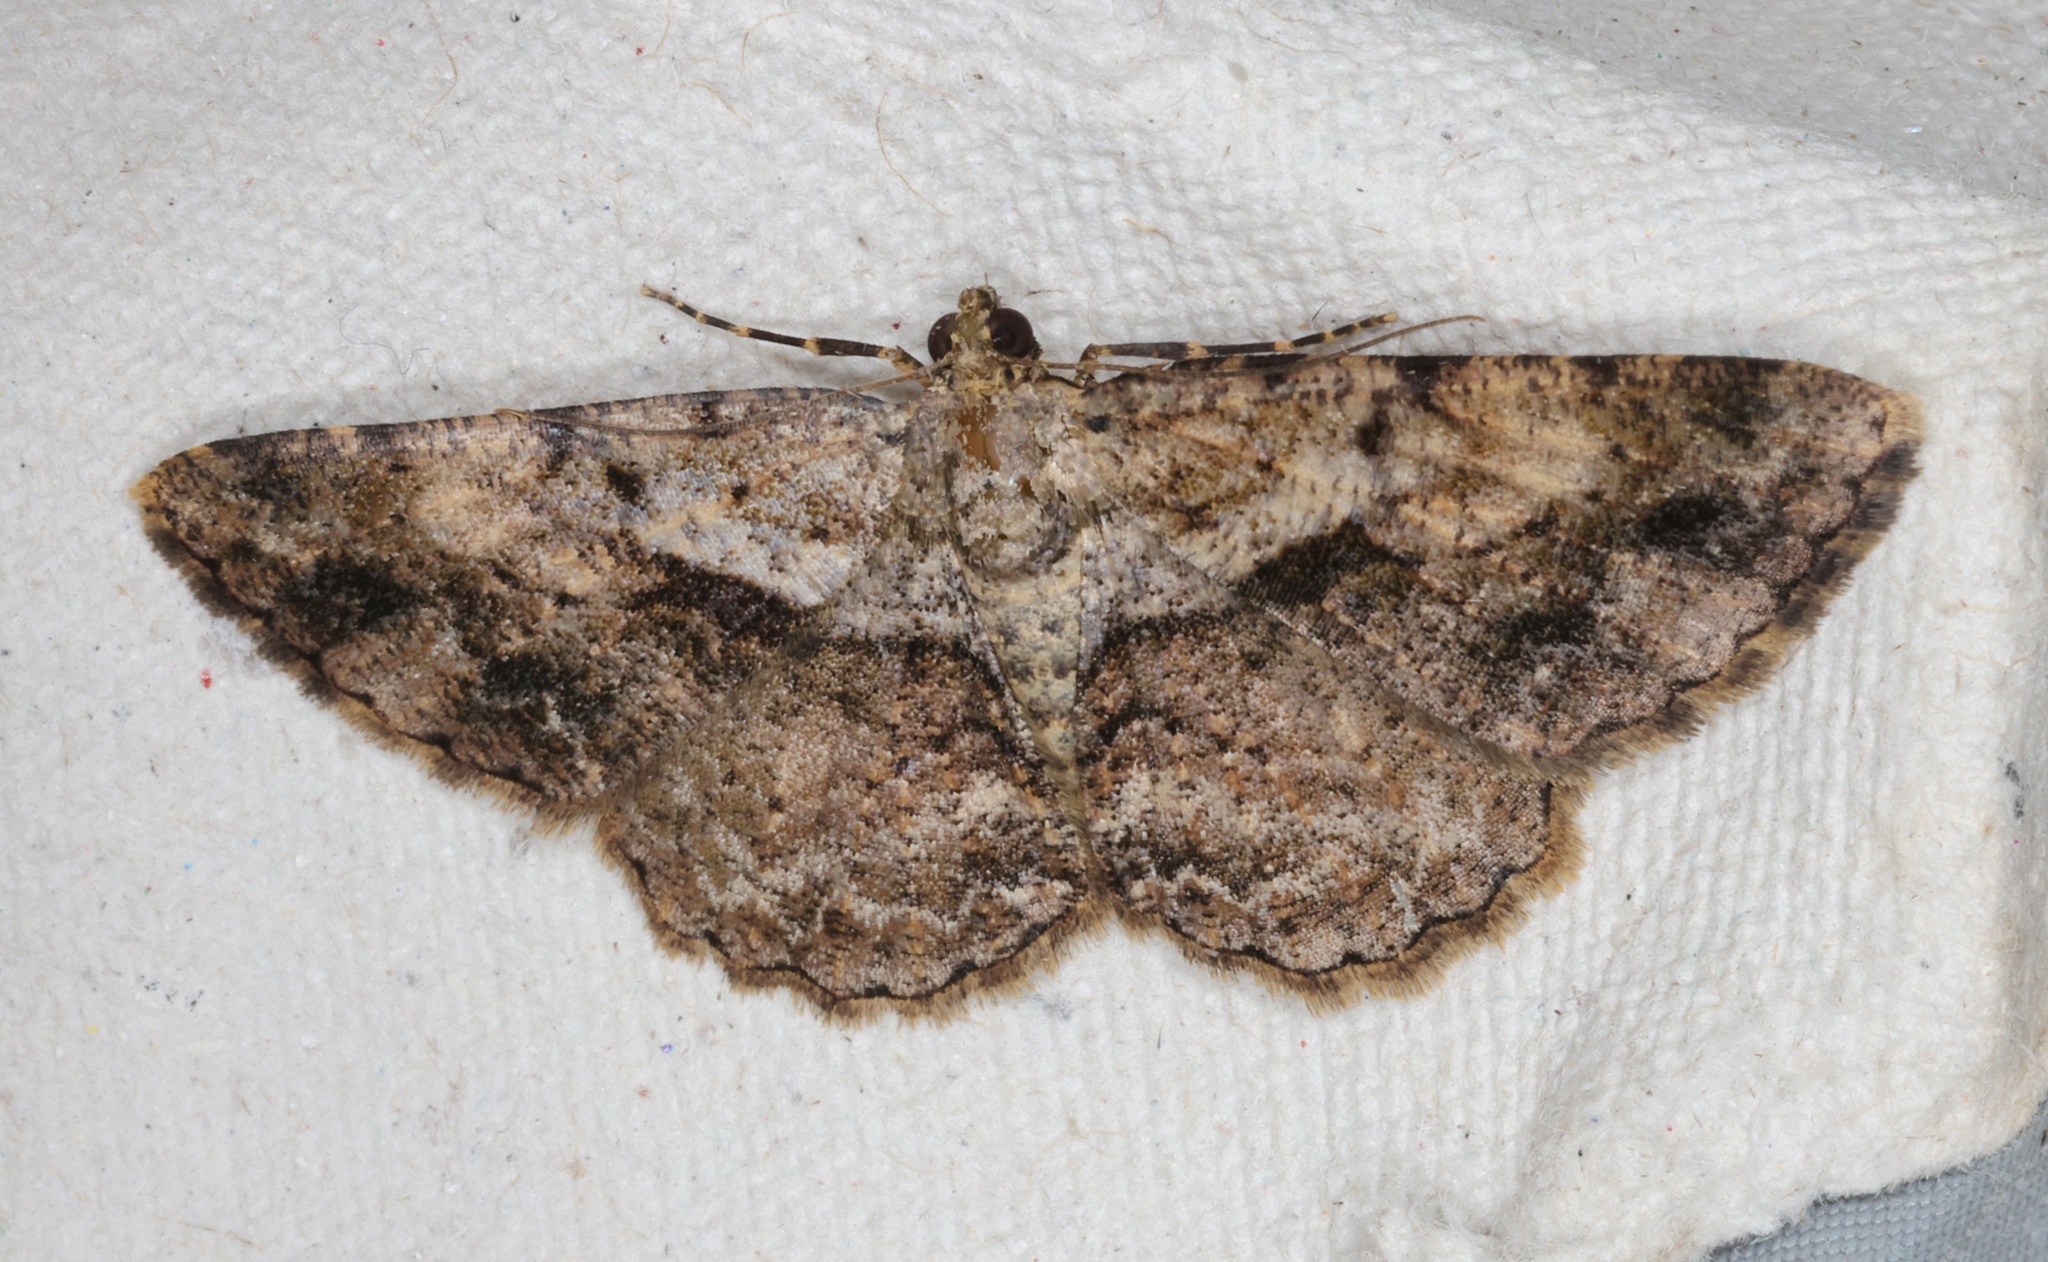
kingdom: Animalia
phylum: Arthropoda
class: Insecta
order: Lepidoptera
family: Geometridae
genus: Psilalcis
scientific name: Psilalcis galsworthyi
